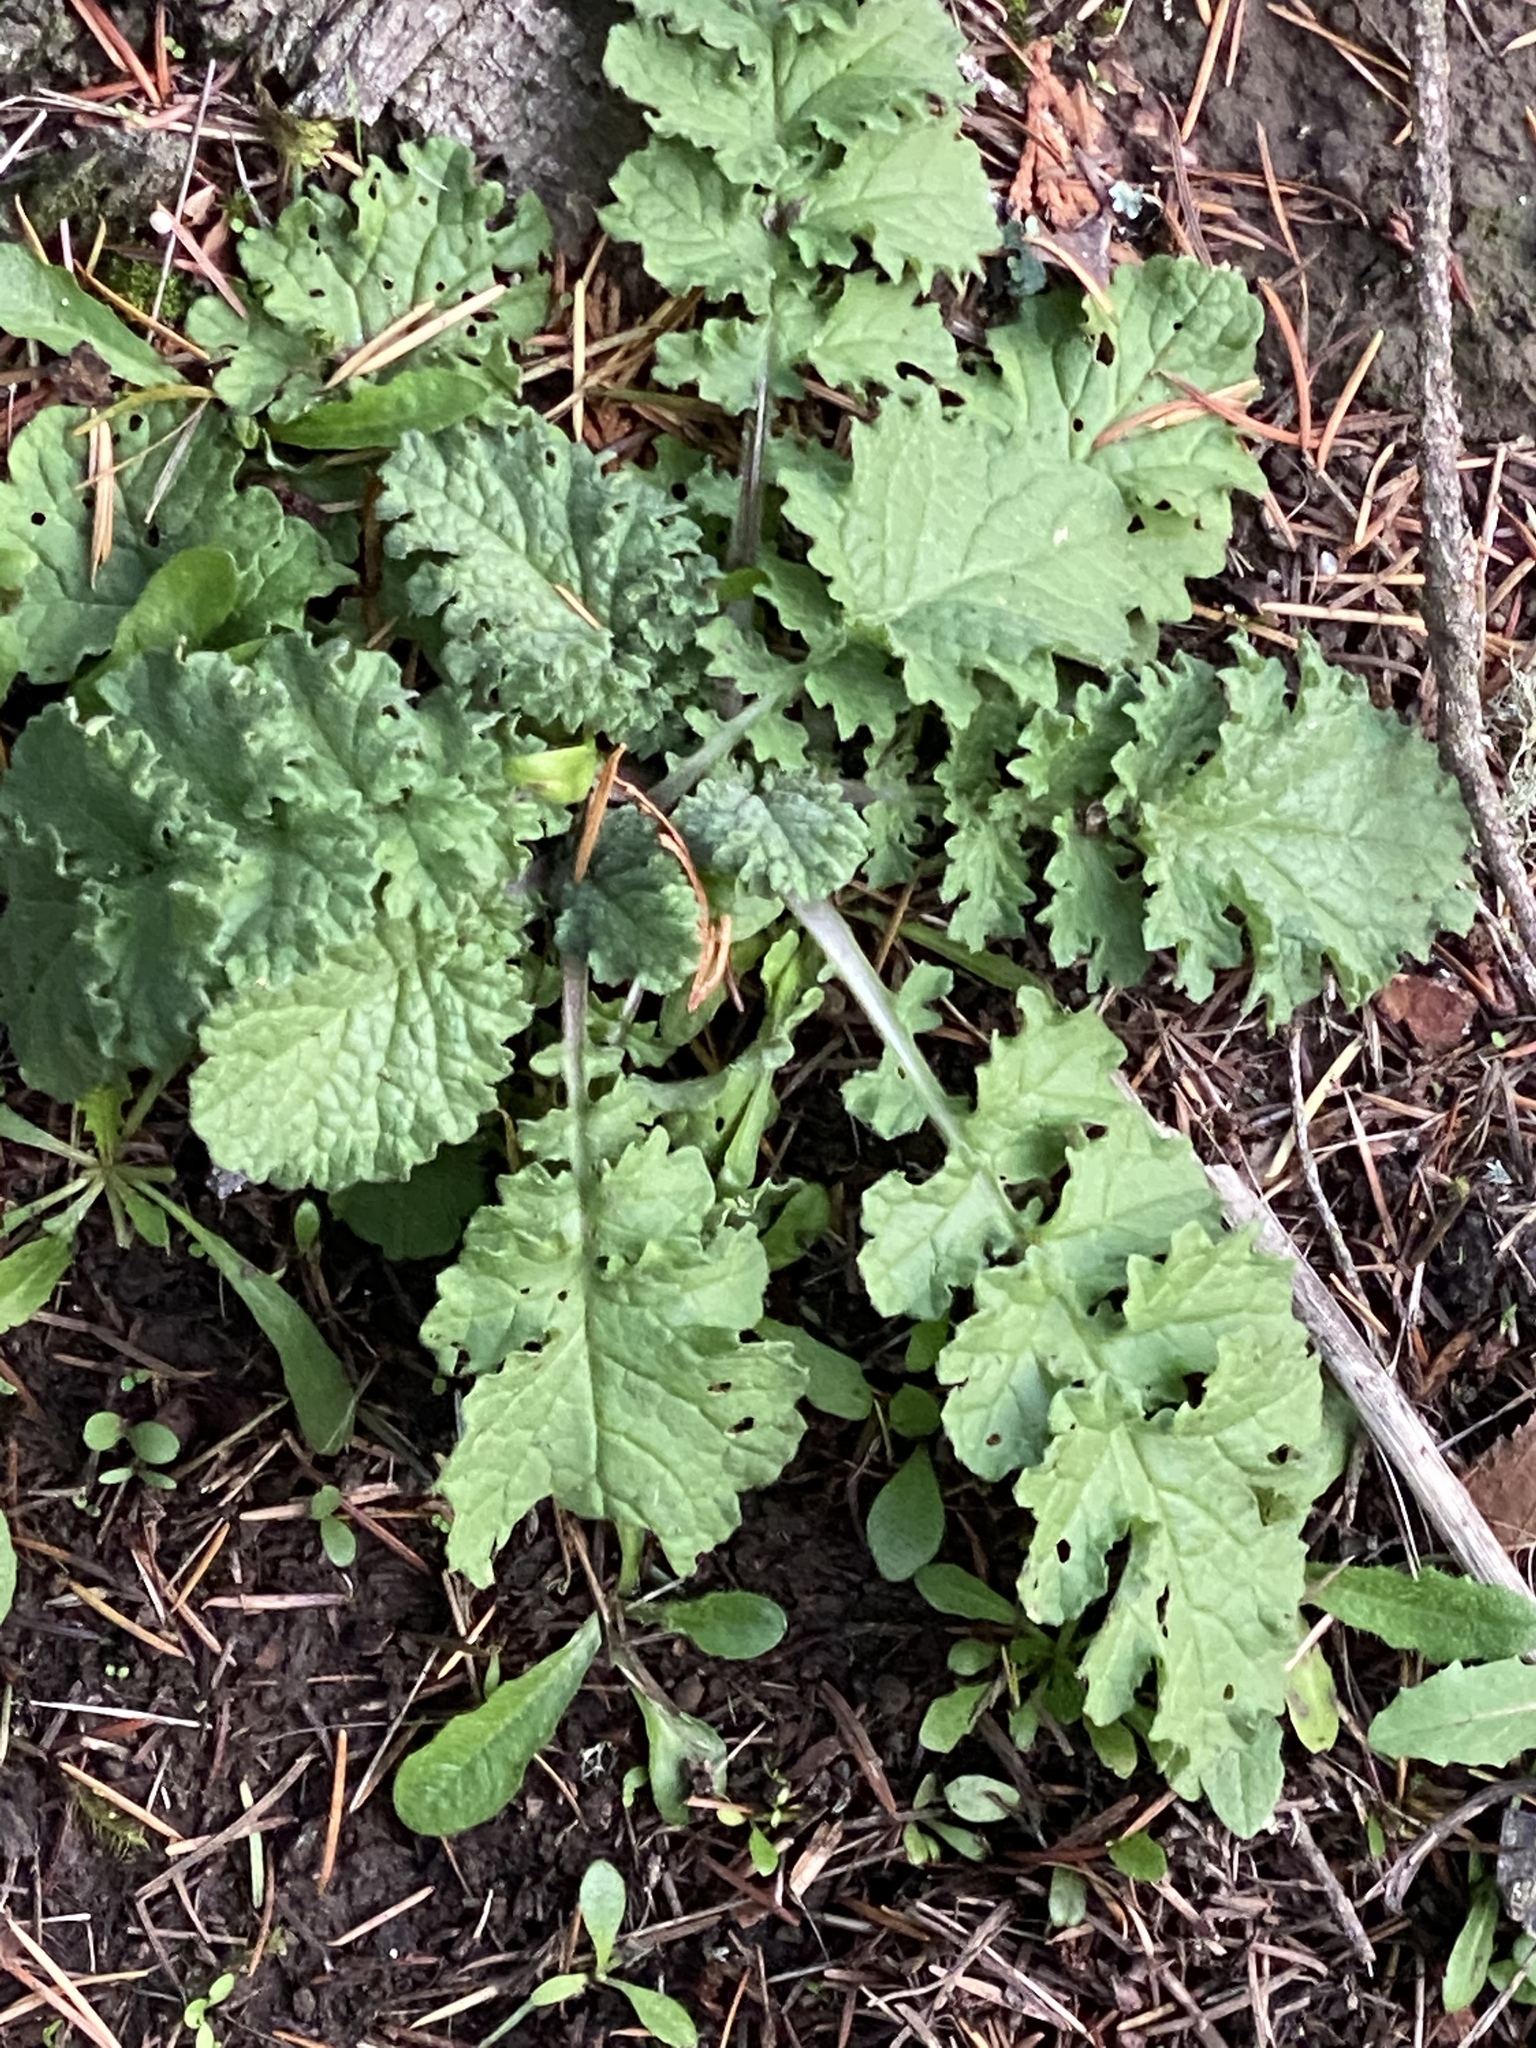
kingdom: Plantae
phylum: Tracheophyta
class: Magnoliopsida
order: Asterales
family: Asteraceae
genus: Jacobaea
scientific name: Jacobaea vulgaris
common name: Stinking willie
